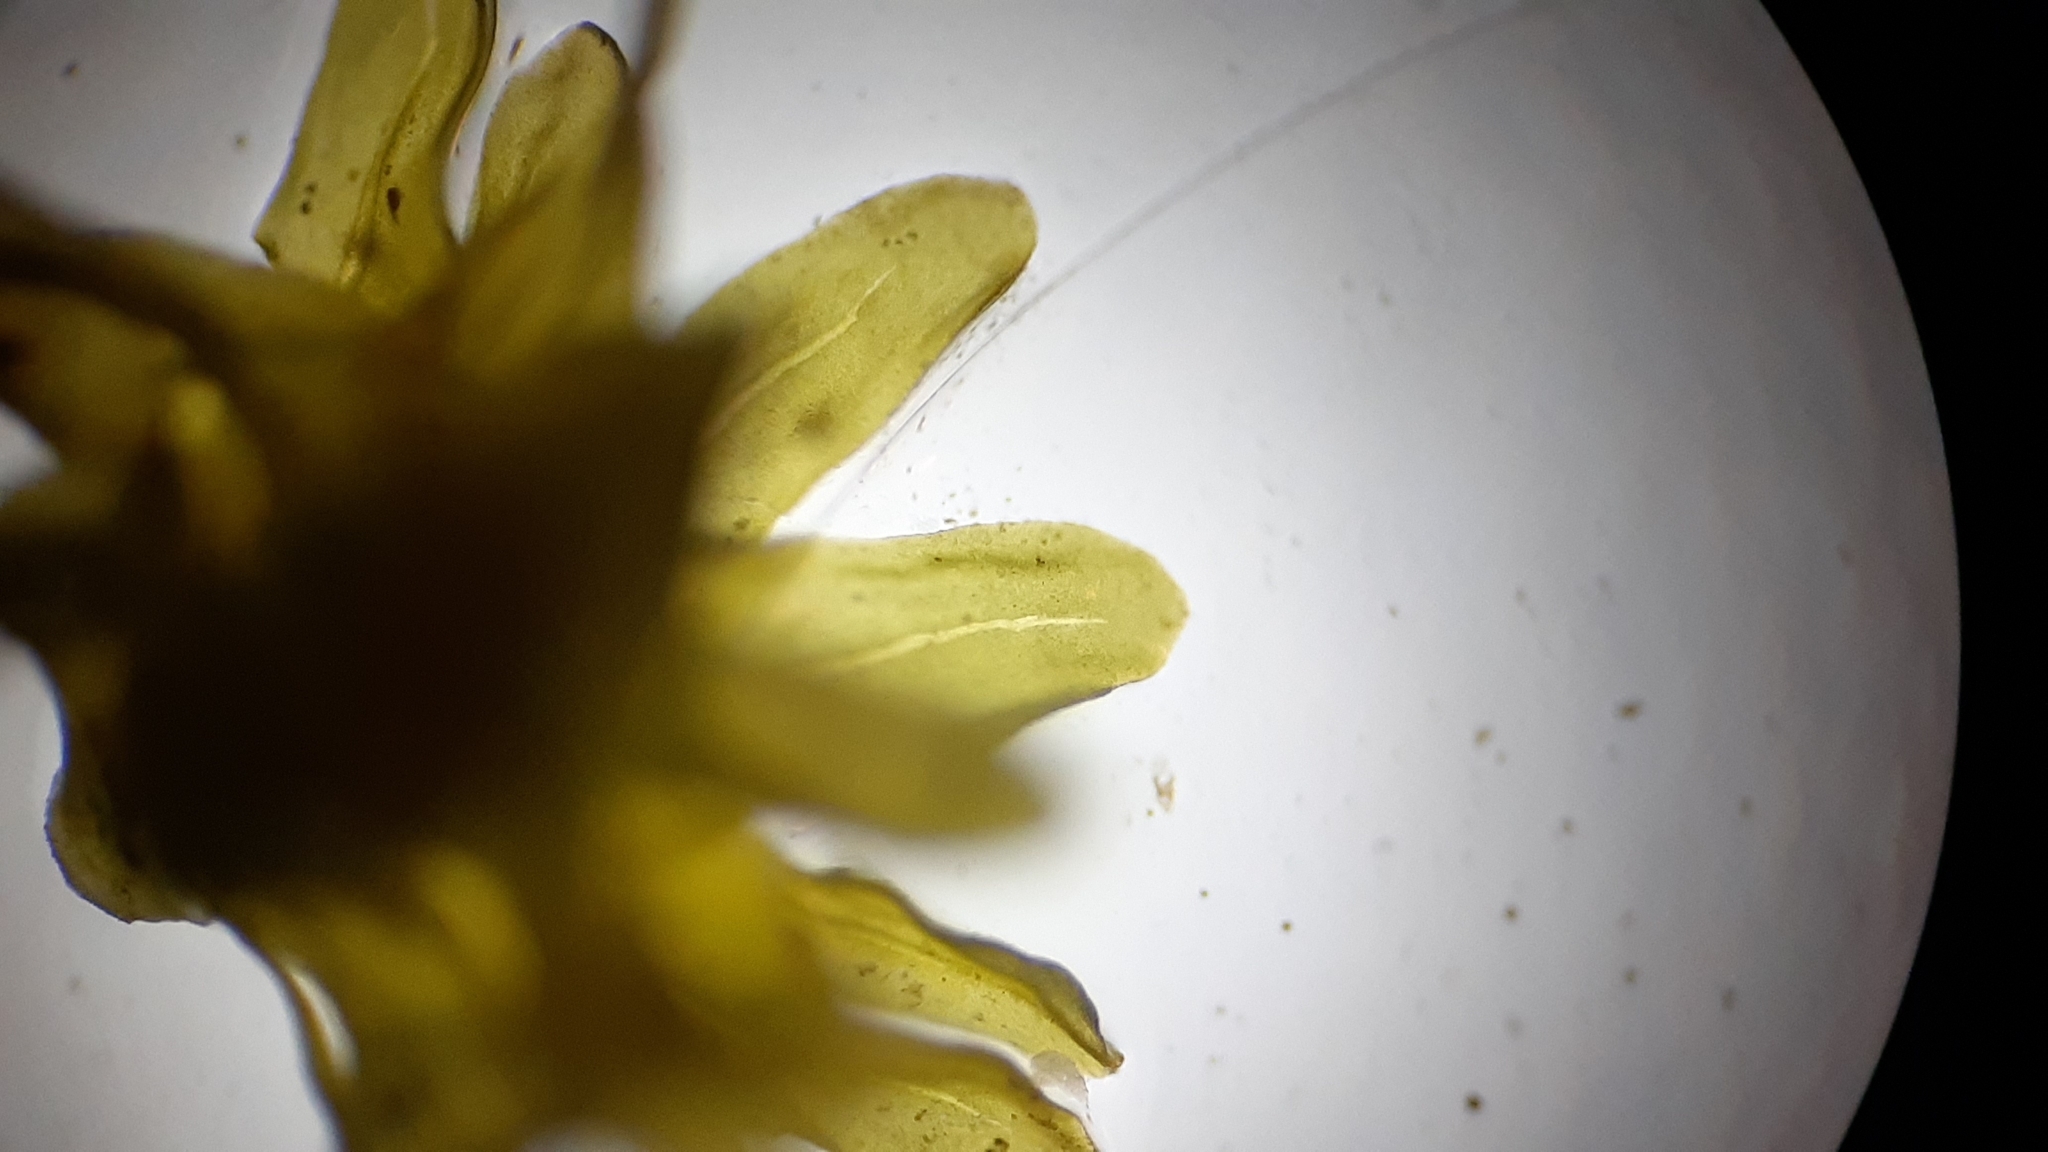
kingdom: Plantae
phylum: Bryophyta
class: Bryopsida
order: Hypnales
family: Anomodontaceae
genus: Anomodon
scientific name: Anomodon minor
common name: Blunt-leaved anomodon
